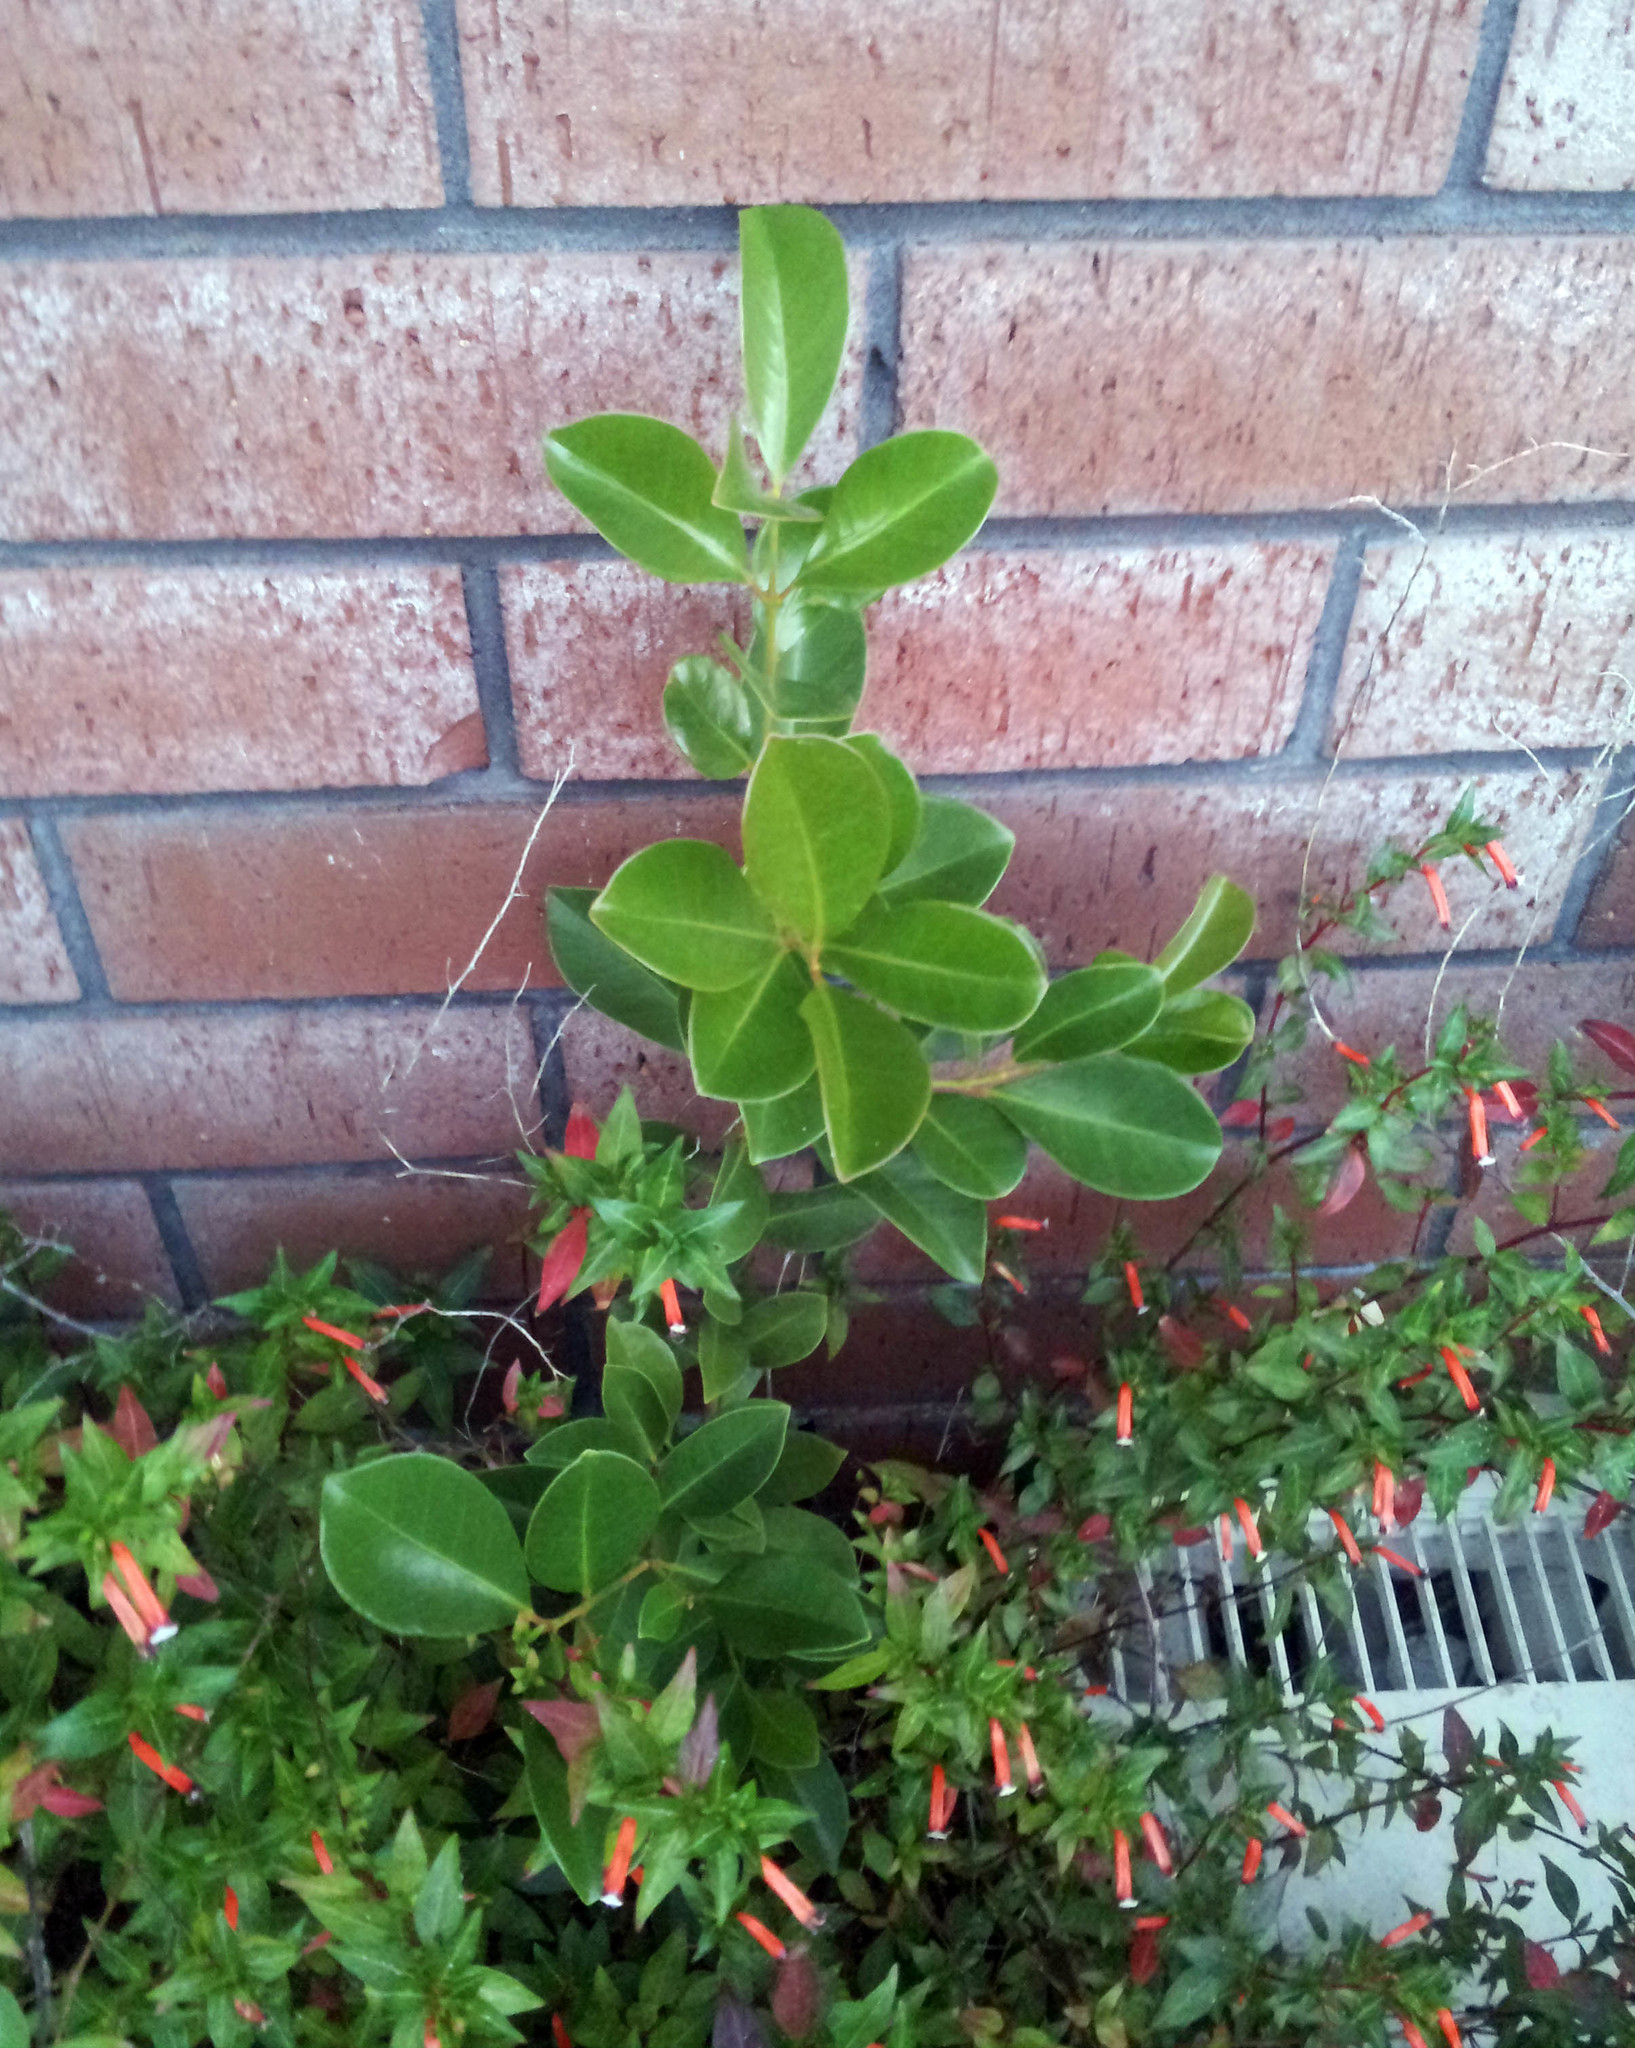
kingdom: Plantae
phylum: Tracheophyta
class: Magnoliopsida
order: Myrtales
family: Myrtaceae
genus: Psidium
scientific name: Psidium cattleianum
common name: Strawberry guava
